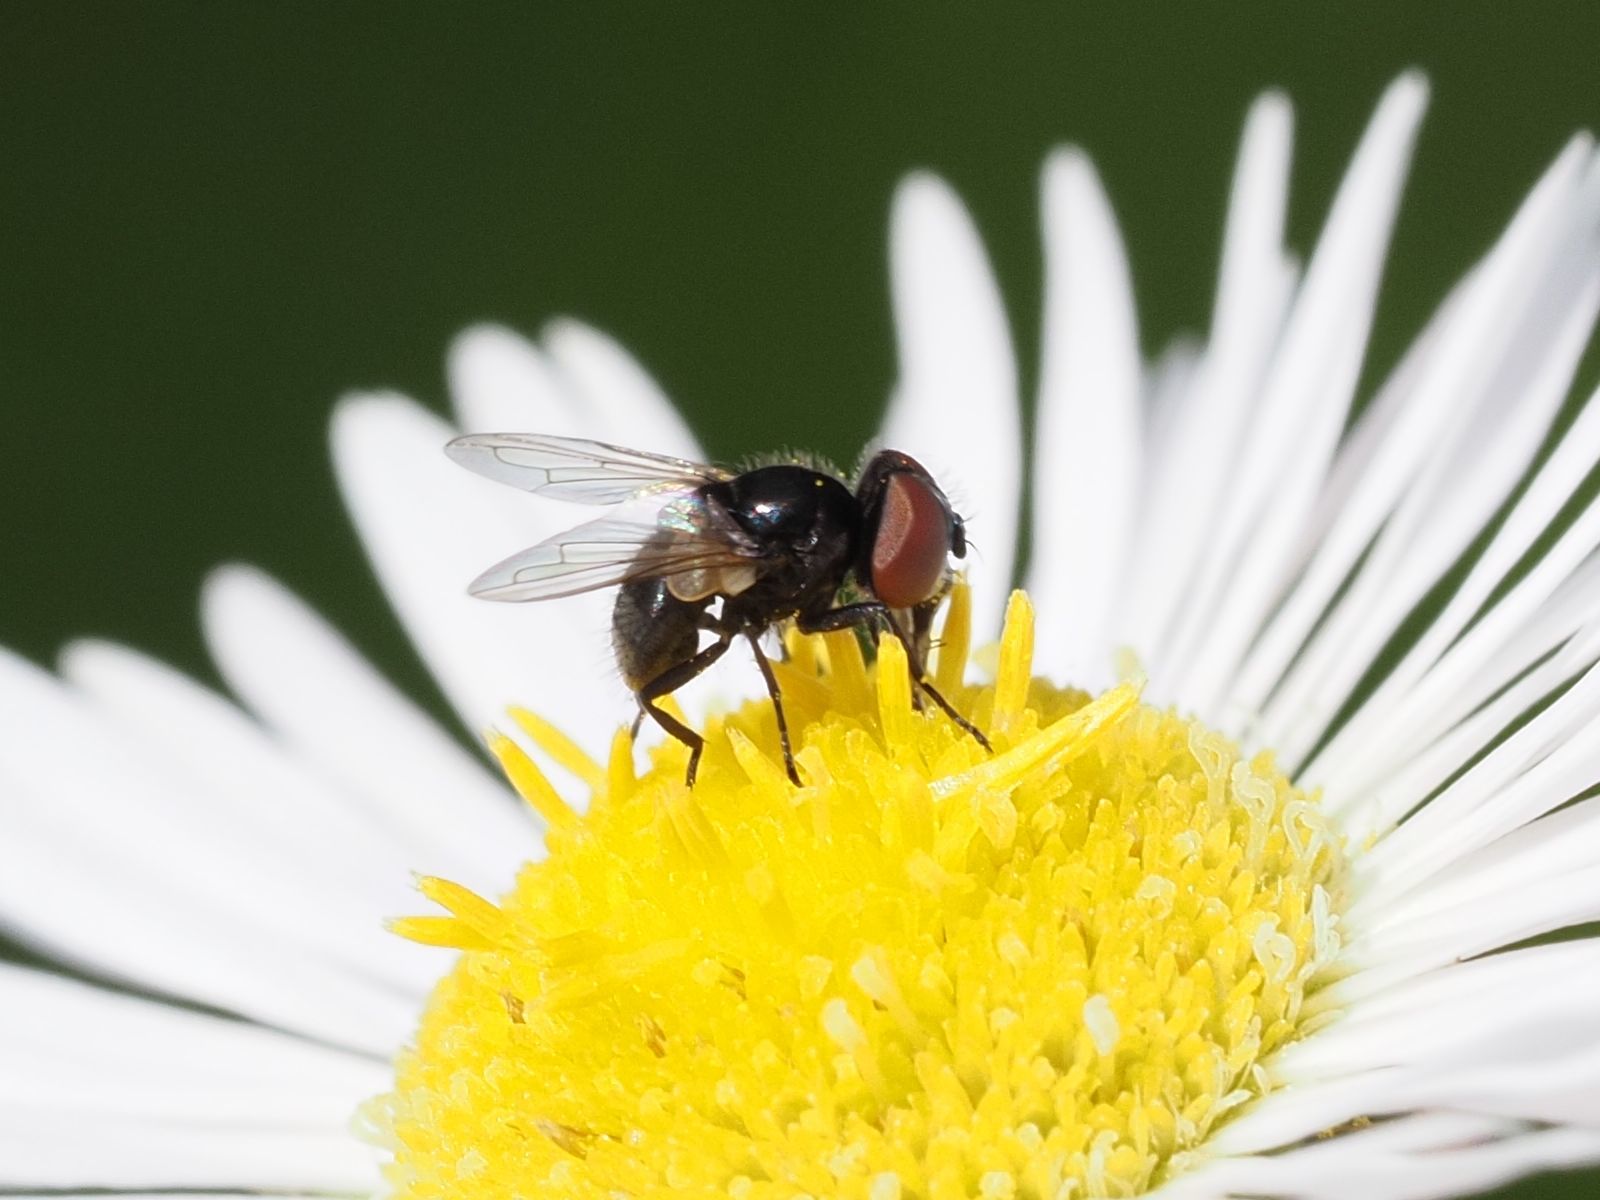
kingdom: Animalia
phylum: Arthropoda
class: Insecta
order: Diptera
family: Tachinidae
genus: Phasia
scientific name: Phasia pusilla
